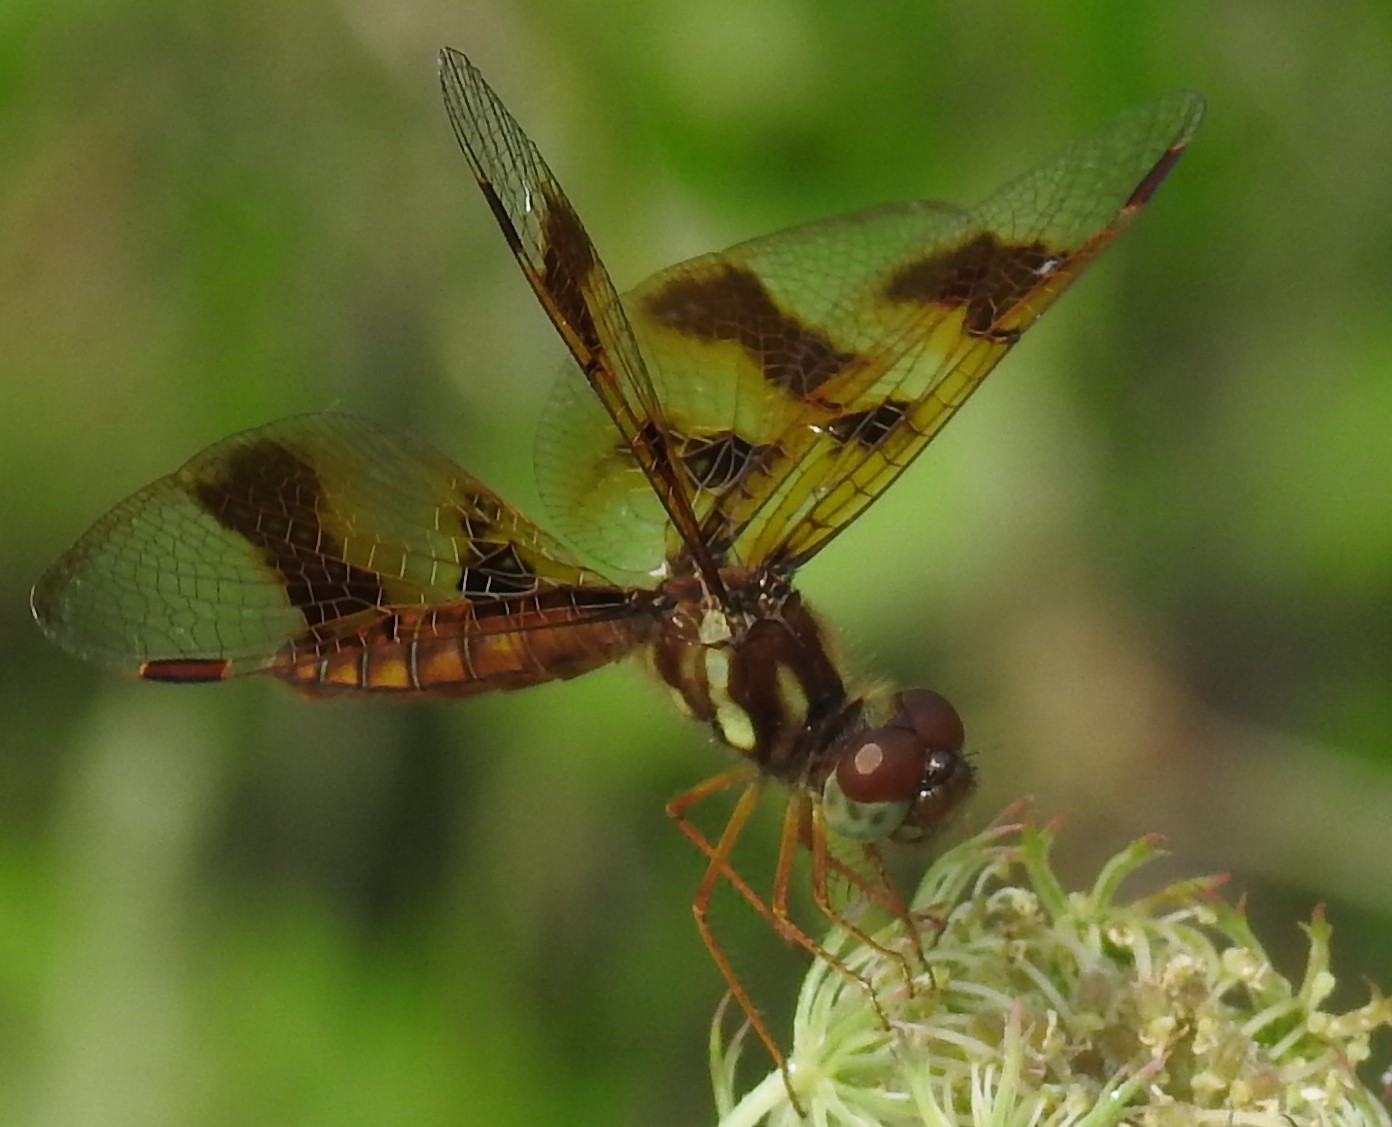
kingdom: Animalia
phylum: Arthropoda
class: Insecta
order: Odonata
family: Libellulidae
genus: Perithemis
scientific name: Perithemis tenera
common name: Eastern amberwing
